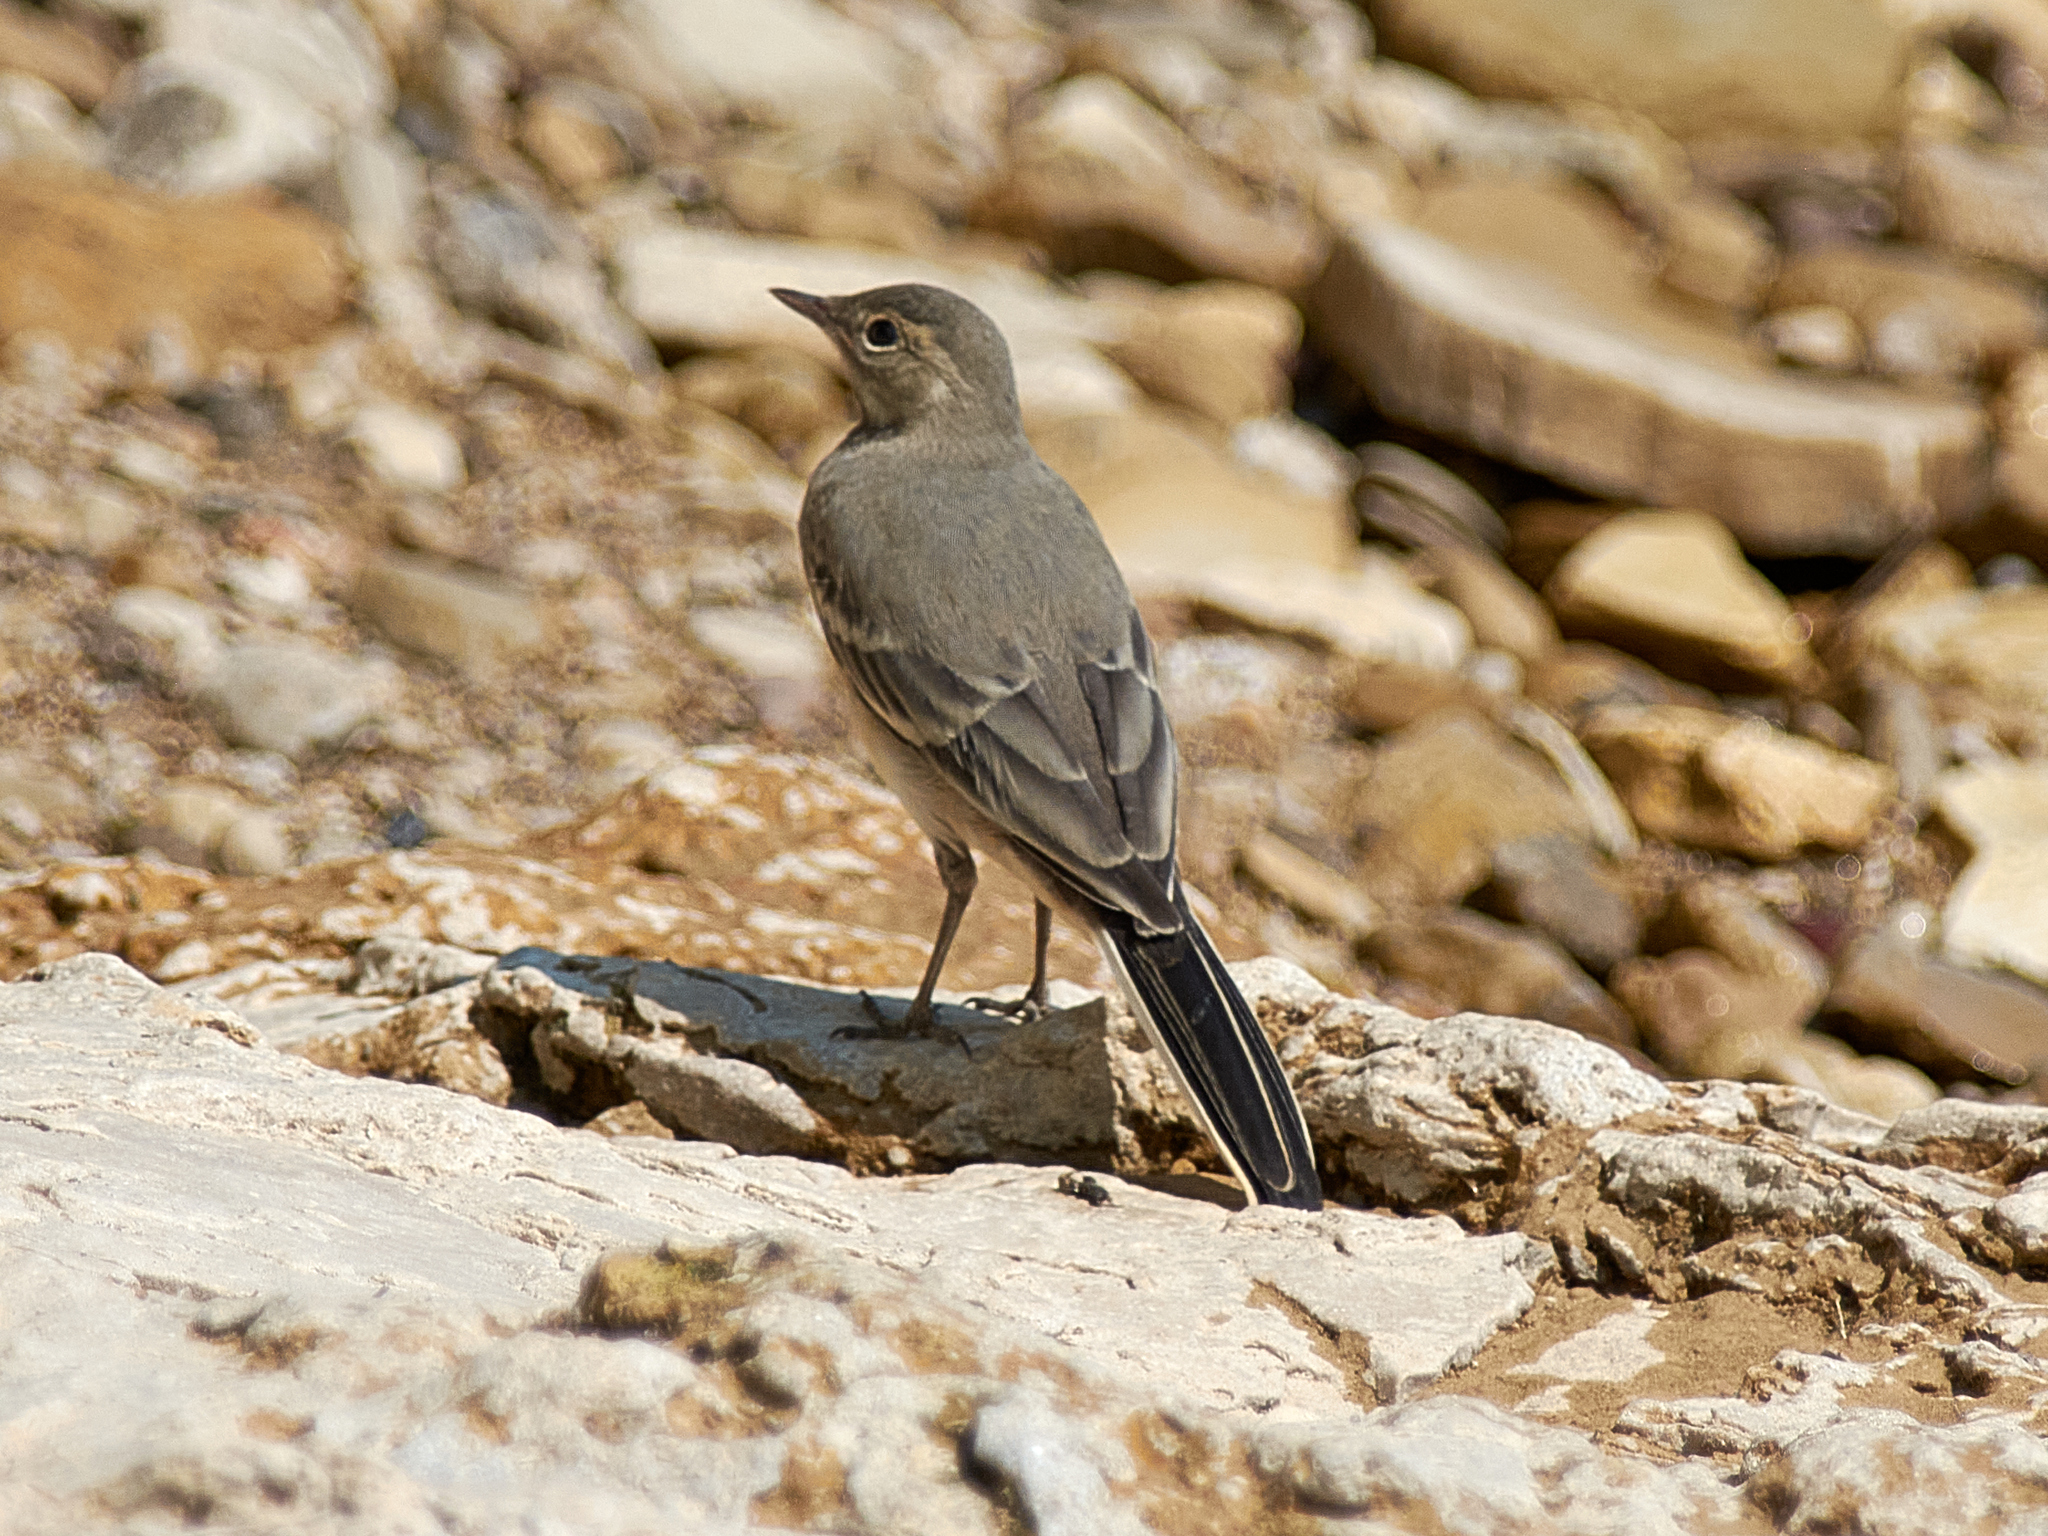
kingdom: Animalia
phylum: Chordata
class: Aves
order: Passeriformes
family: Motacillidae
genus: Motacilla
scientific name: Motacilla alba
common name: White wagtail
